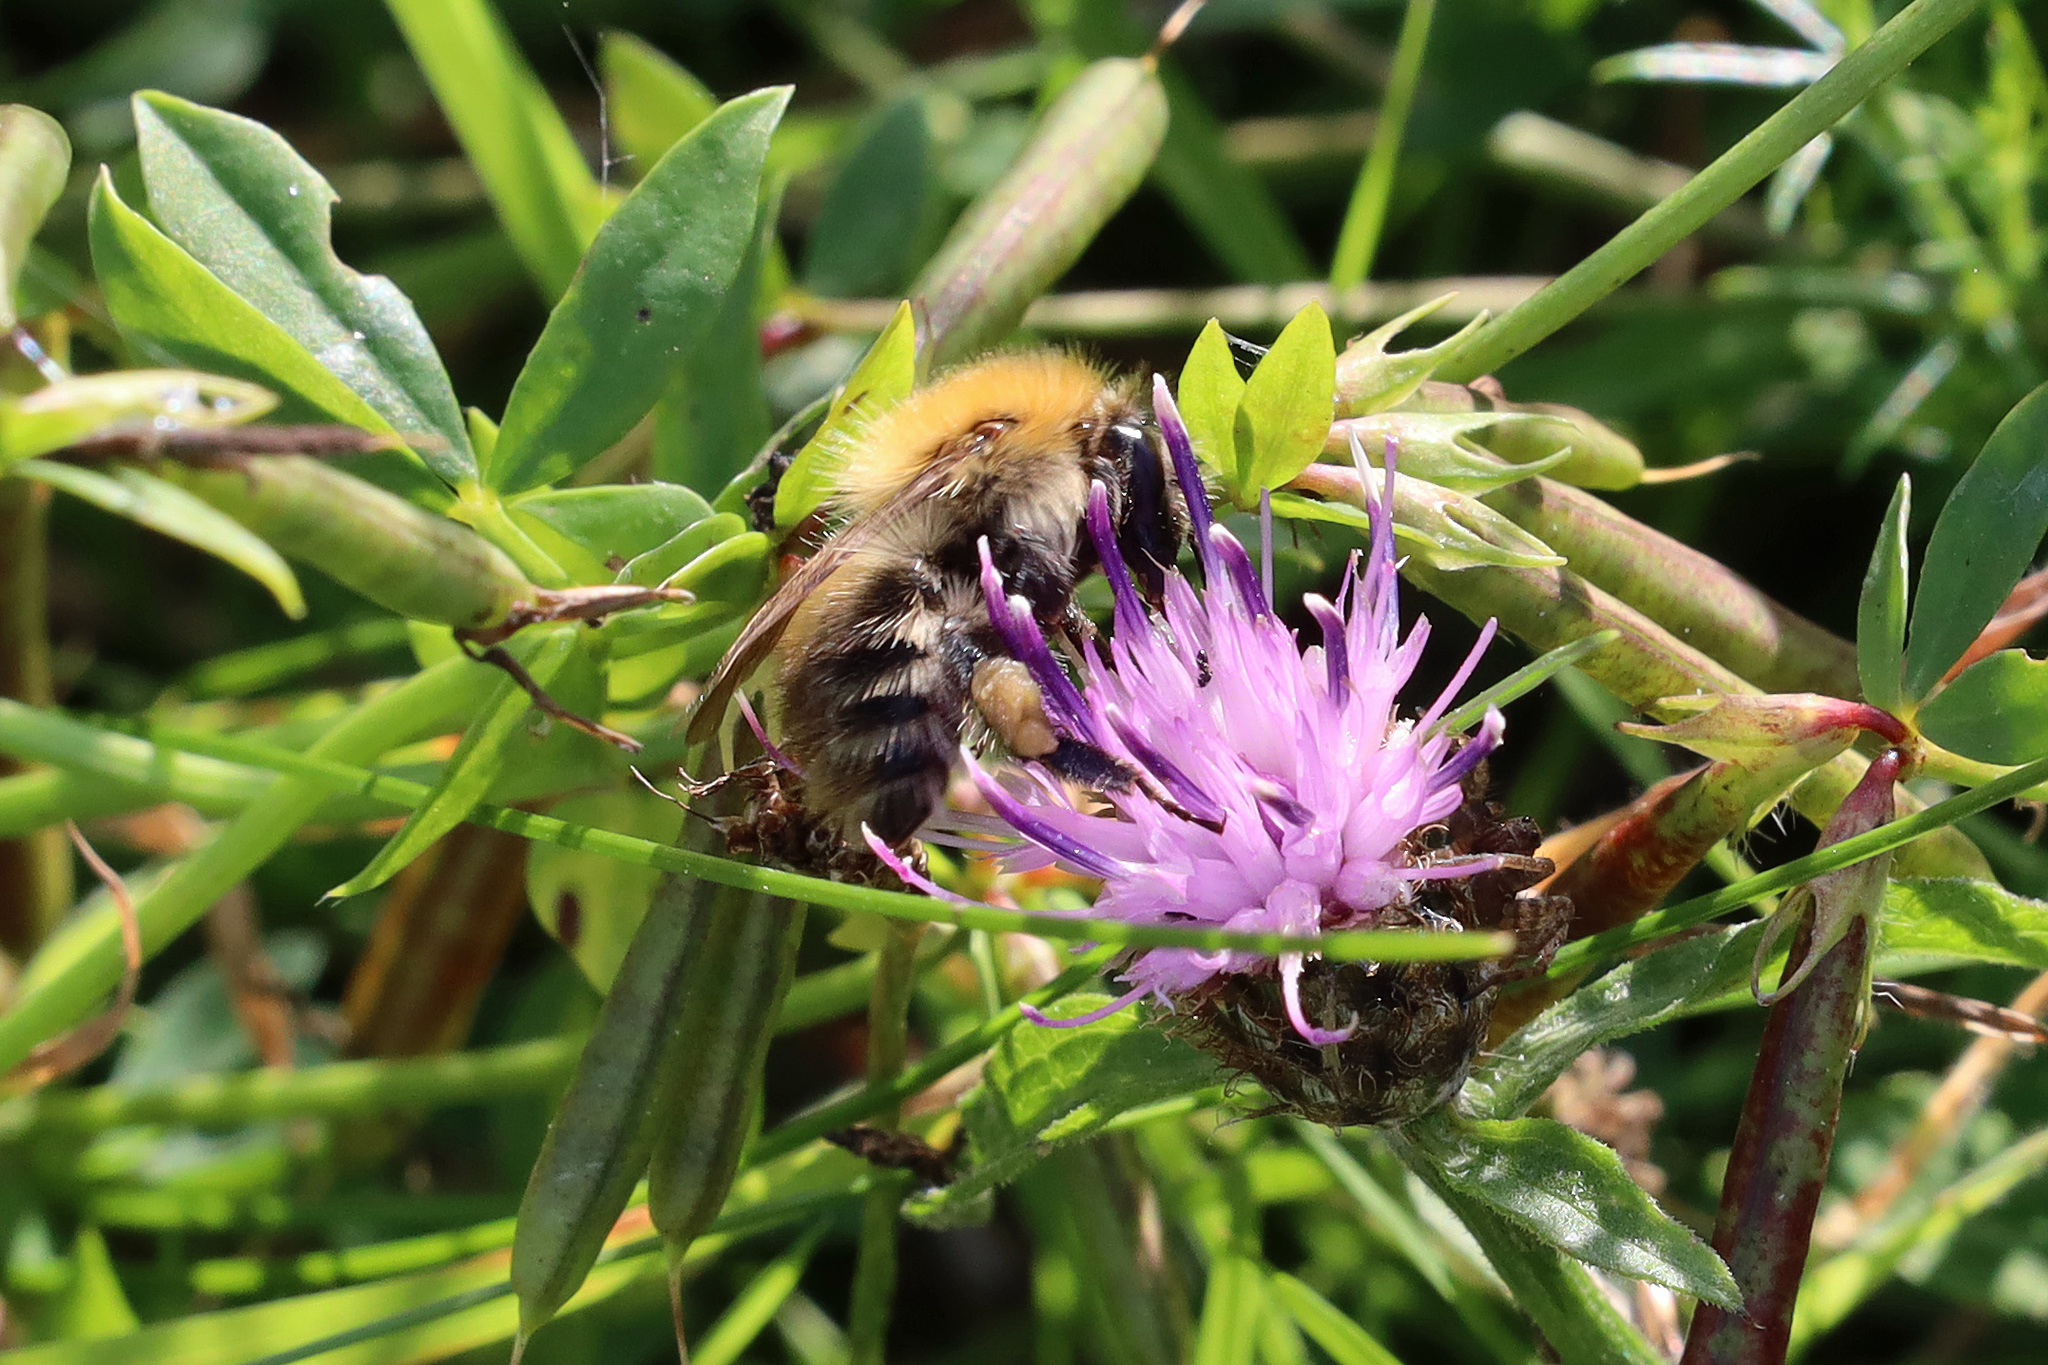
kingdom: Animalia
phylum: Arthropoda
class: Insecta
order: Hymenoptera
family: Apidae
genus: Bombus
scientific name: Bombus pascuorum
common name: Common carder bee
